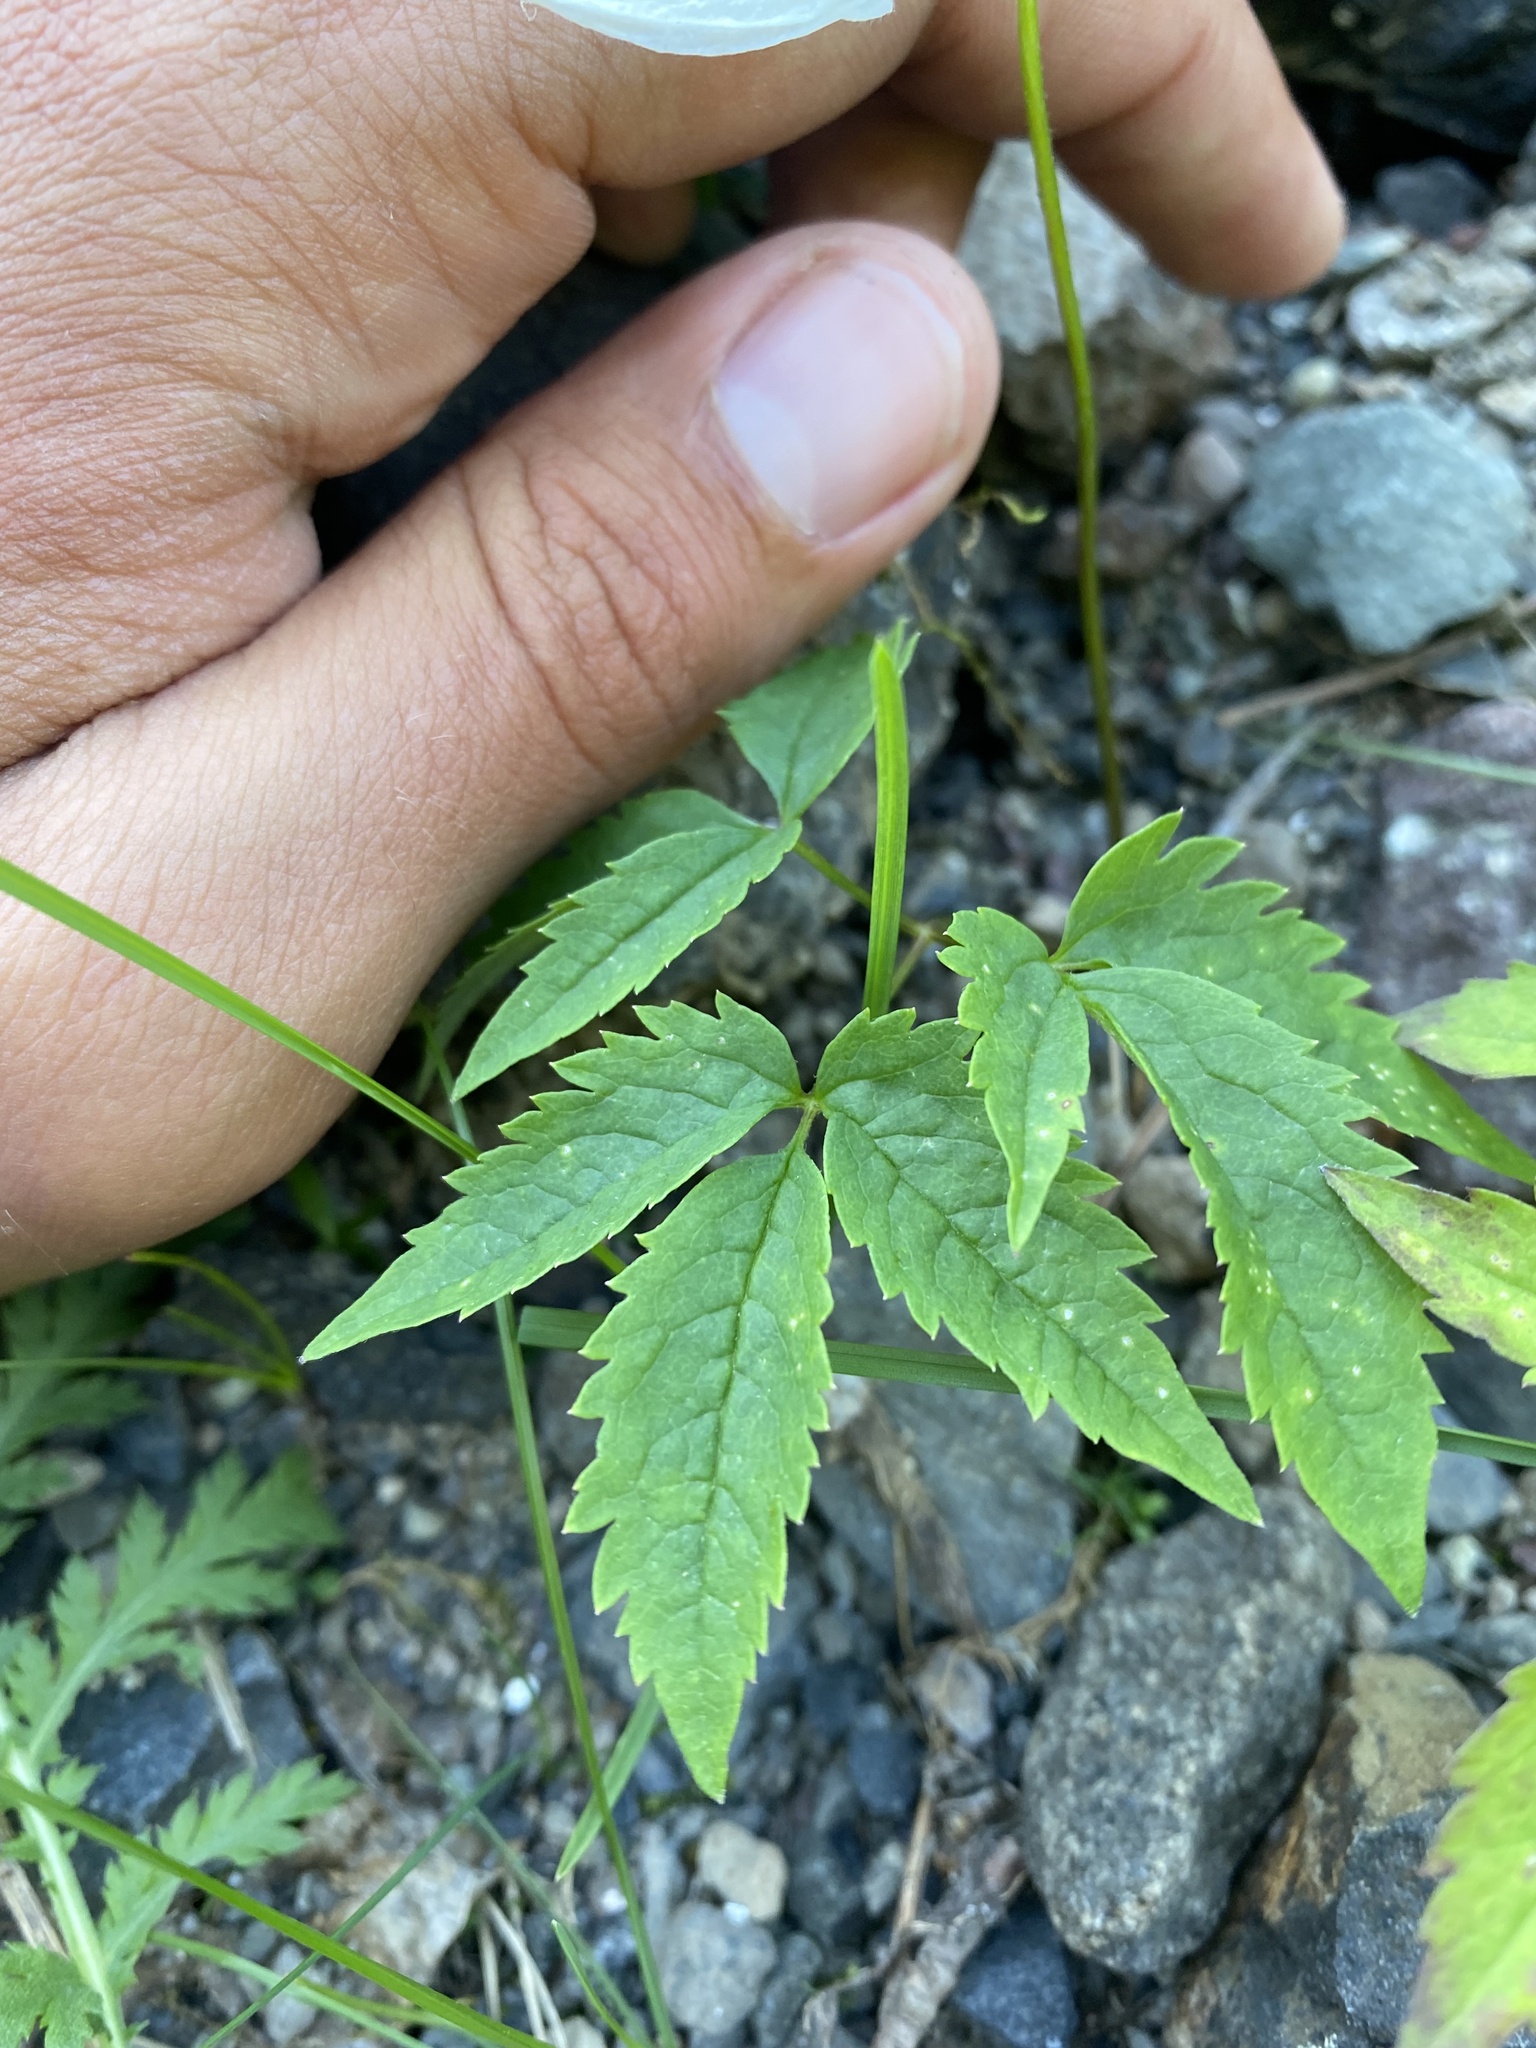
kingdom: Plantae
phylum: Tracheophyta
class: Magnoliopsida
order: Ranunculales
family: Ranunculaceae
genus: Clematis
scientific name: Clematis sibirica
